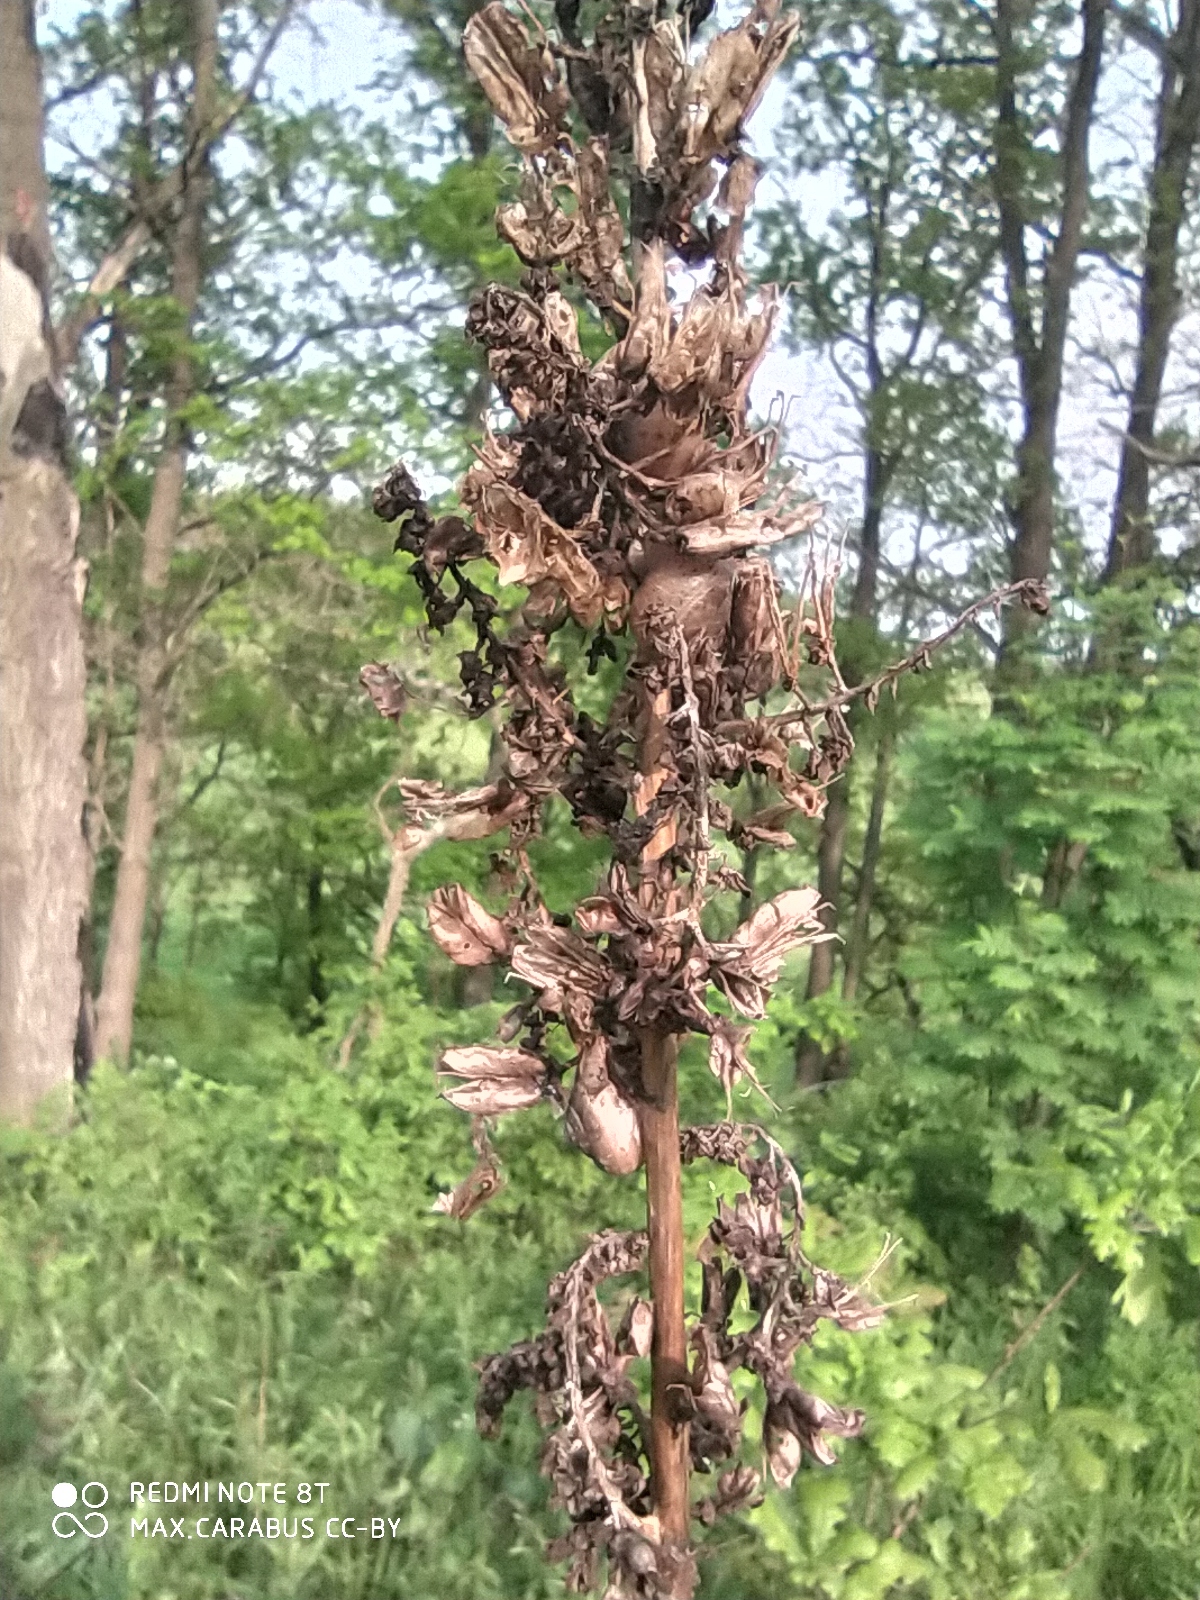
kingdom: Plantae
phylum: Tracheophyta
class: Liliopsida
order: Liliales
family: Melanthiaceae
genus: Veratrum
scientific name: Veratrum lobelianum
